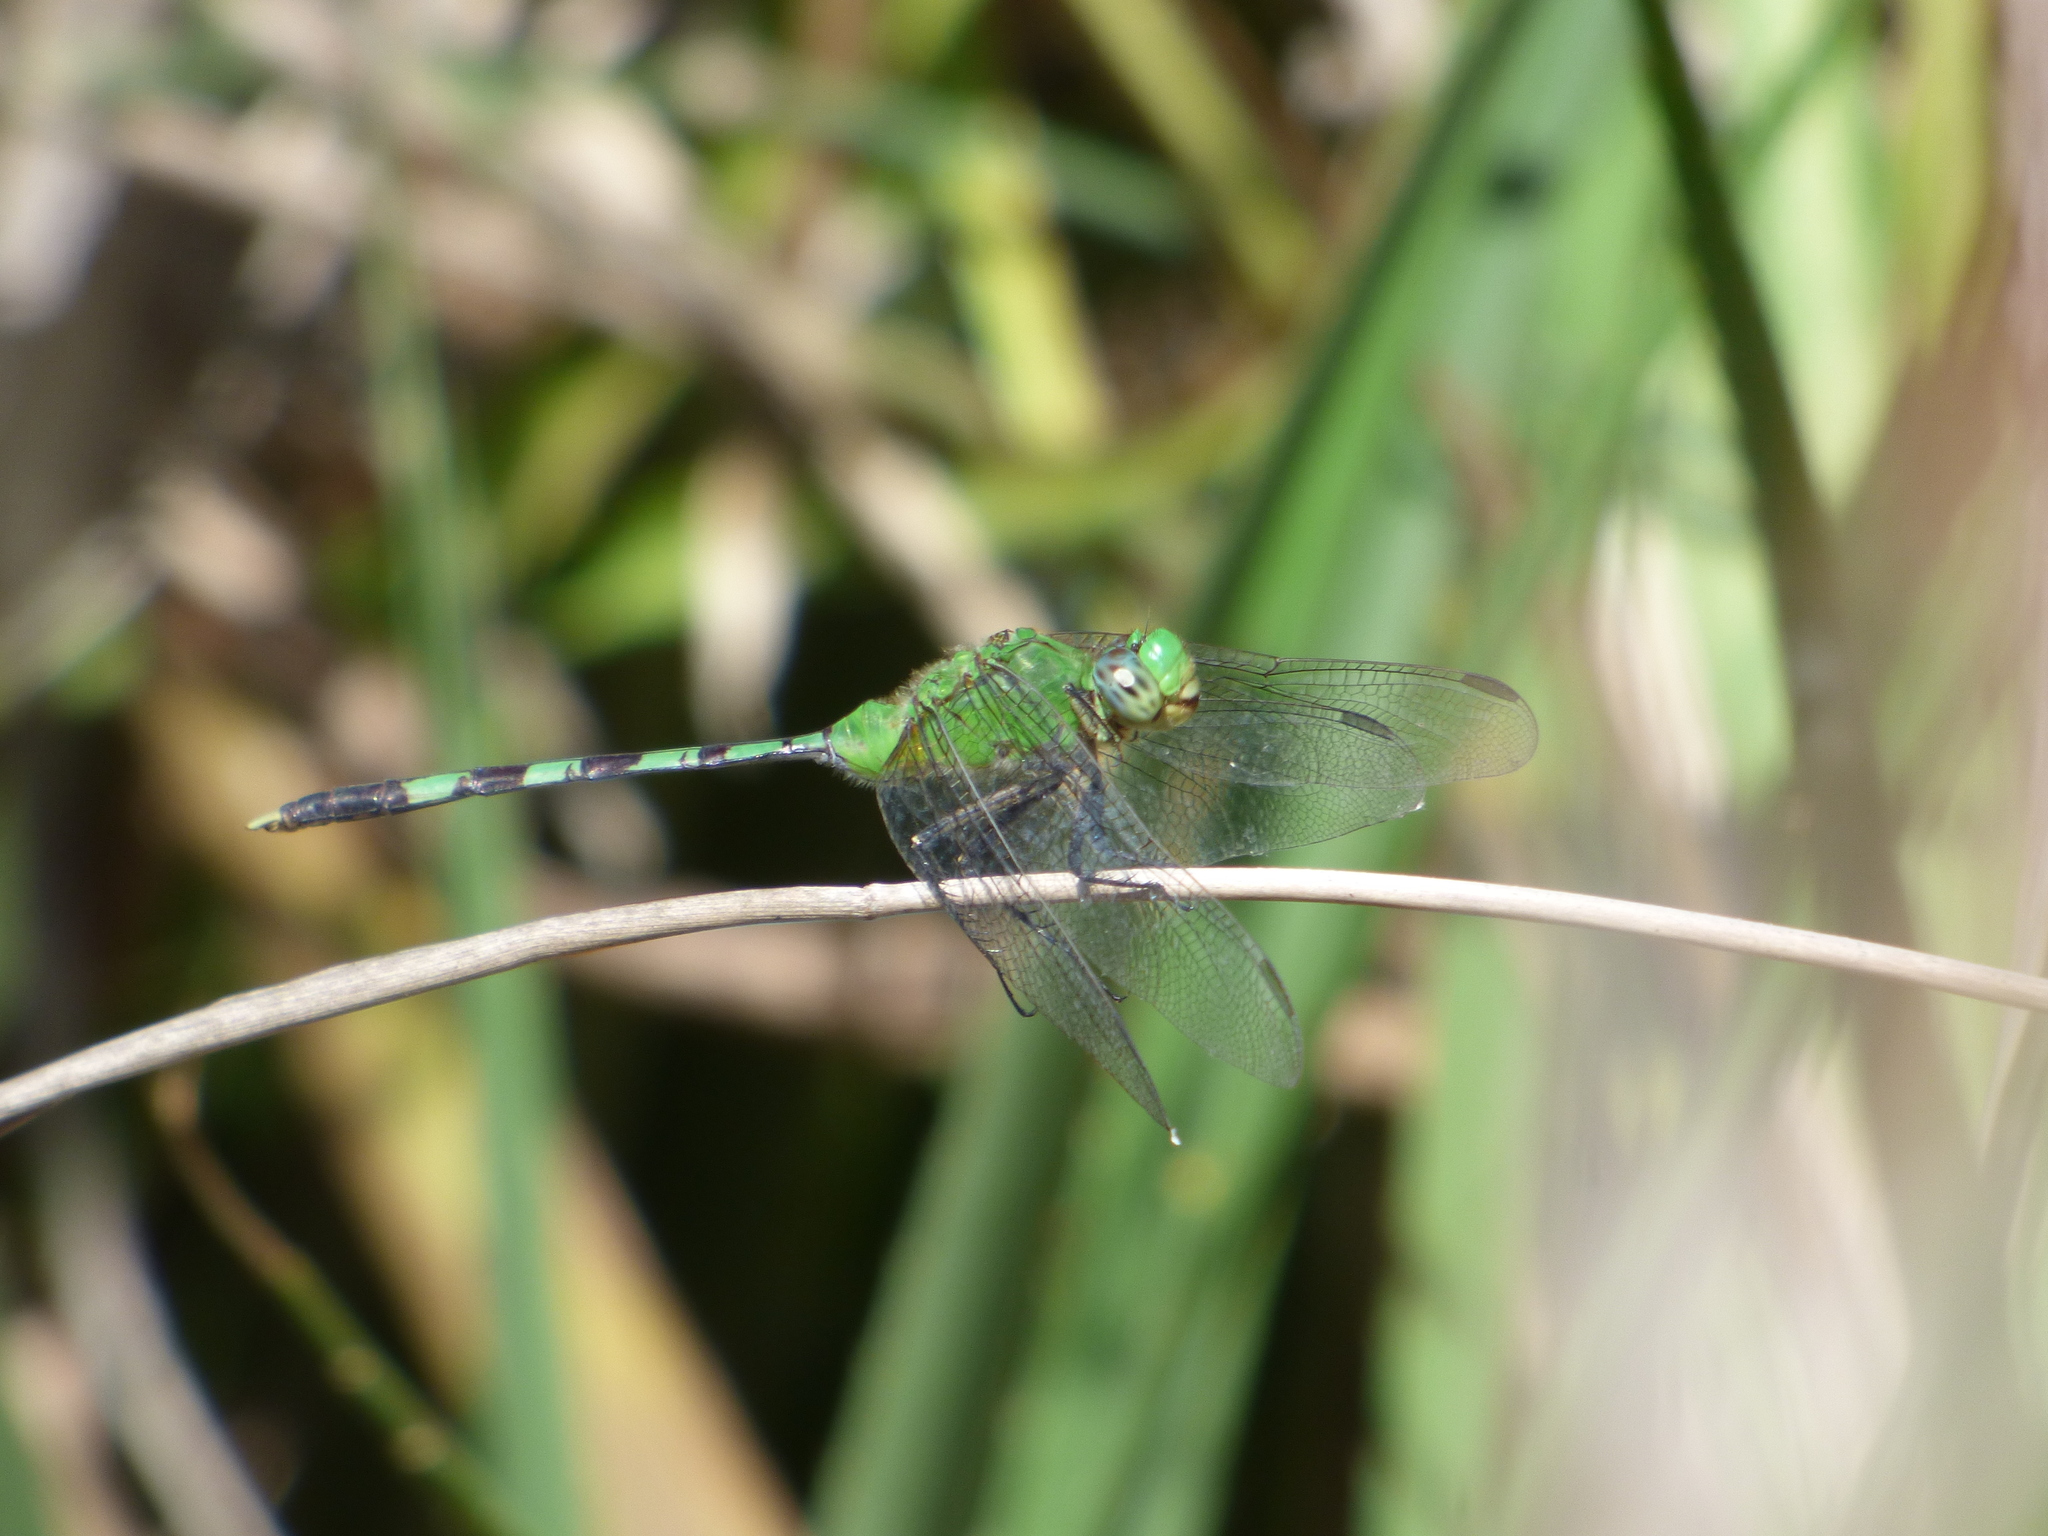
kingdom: Animalia
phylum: Arthropoda
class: Insecta
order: Odonata
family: Libellulidae
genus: Erythemis
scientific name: Erythemis vesiculosa
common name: Great pondhawk
